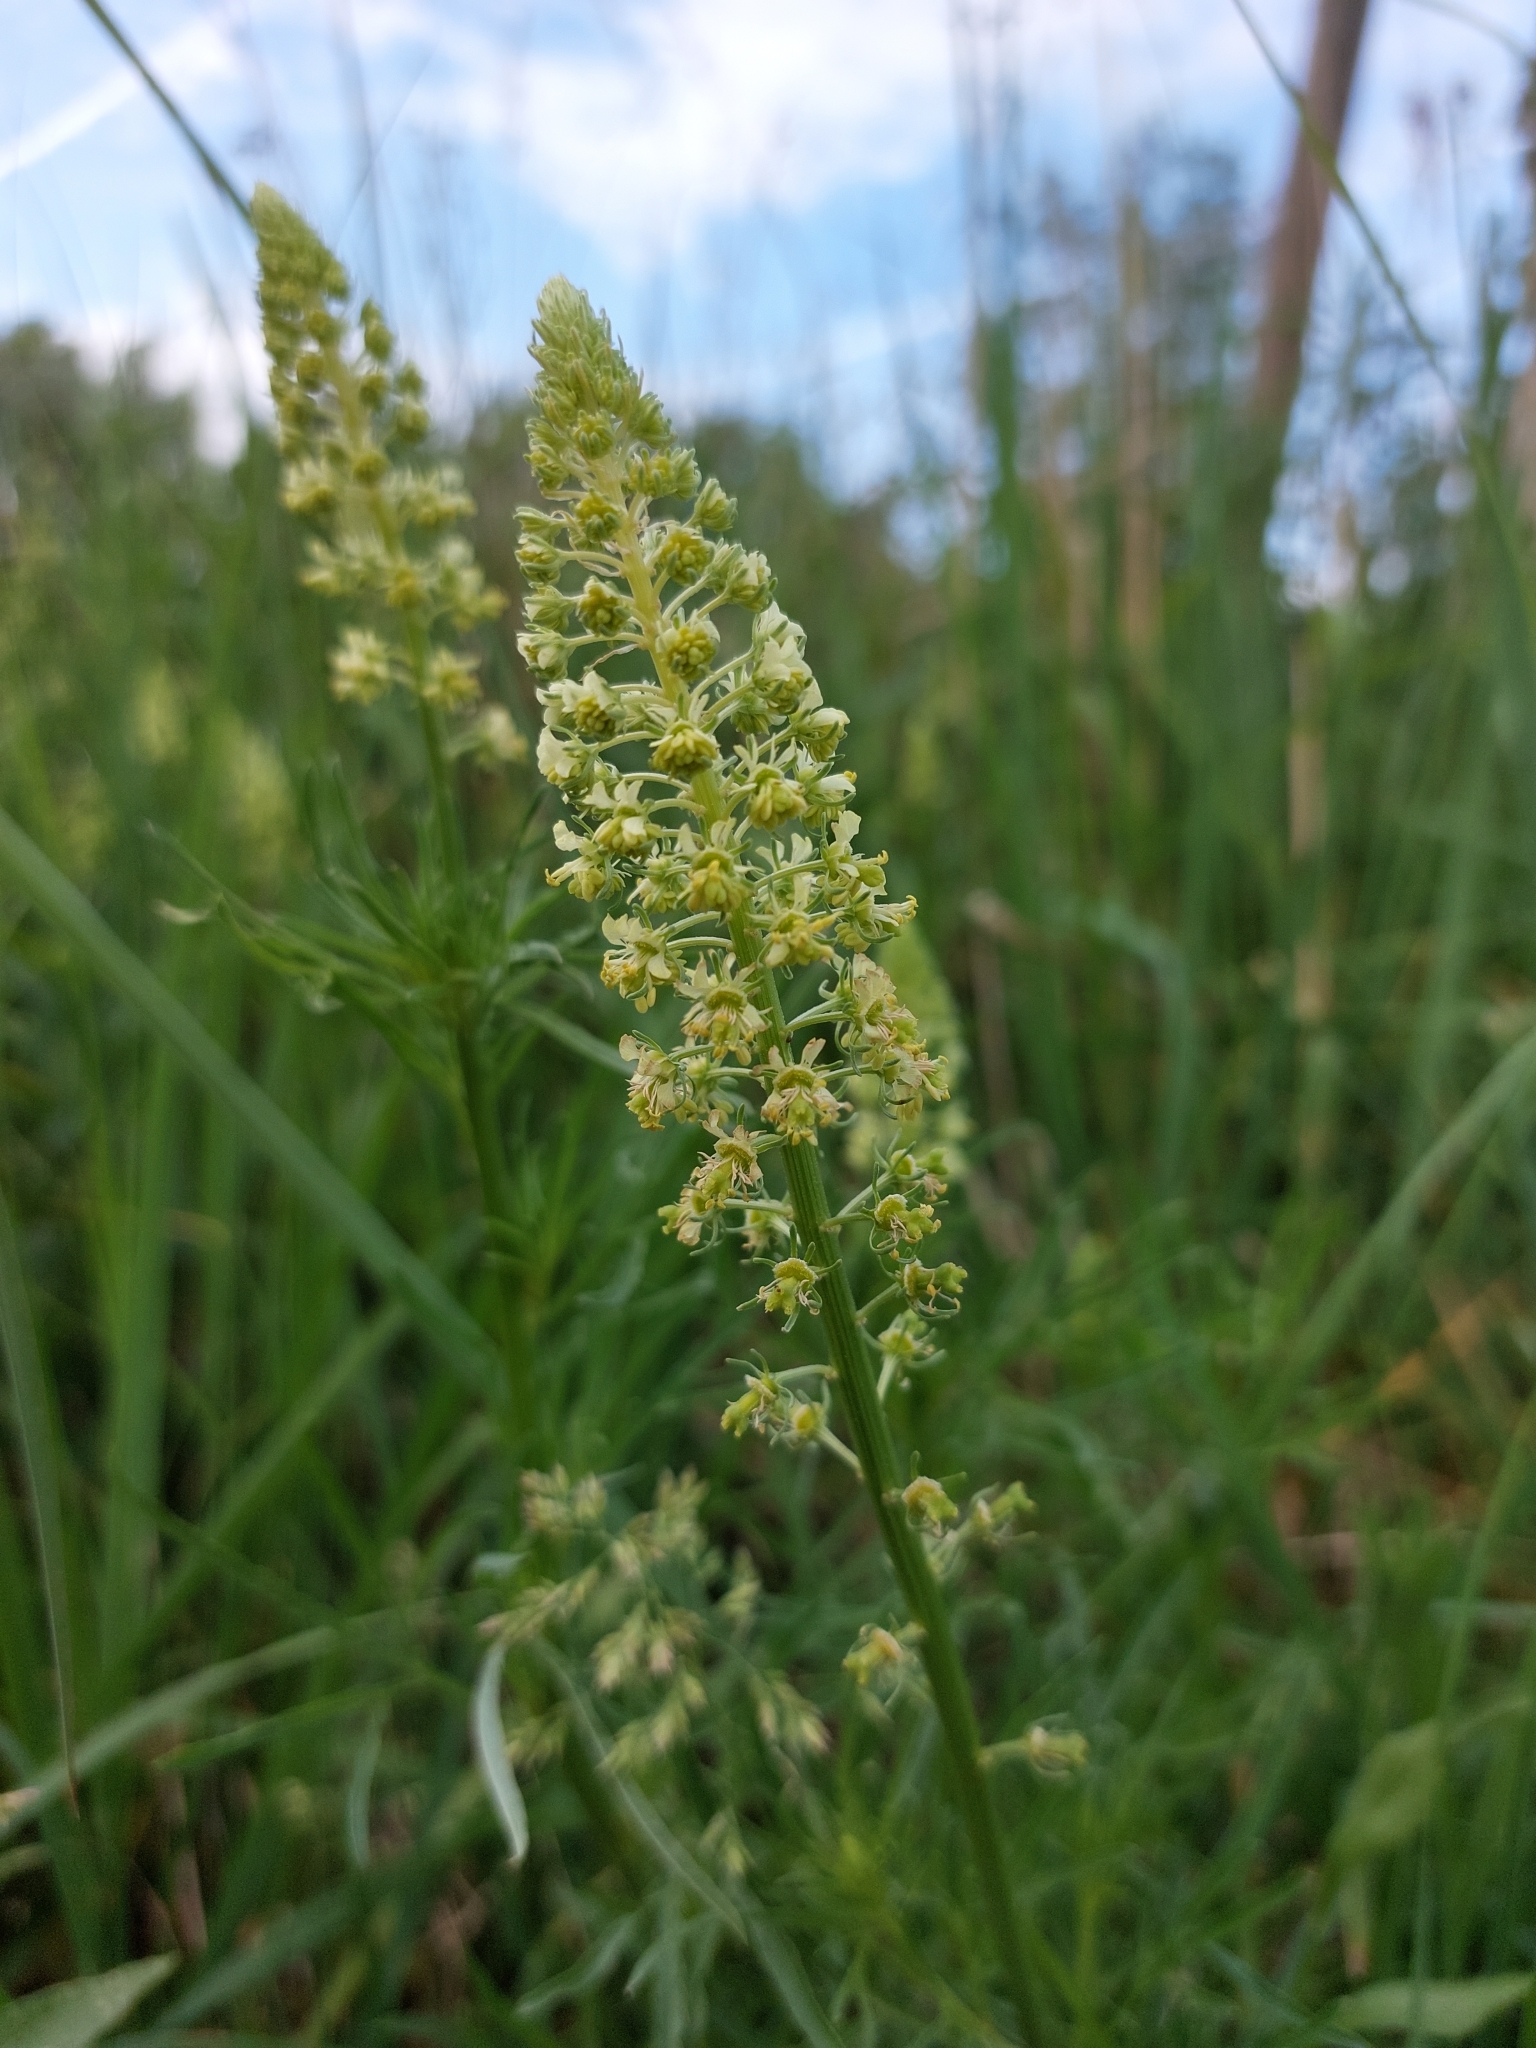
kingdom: Plantae
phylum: Tracheophyta
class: Magnoliopsida
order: Brassicales
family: Resedaceae
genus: Reseda
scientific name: Reseda lutea
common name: Wild mignonette
